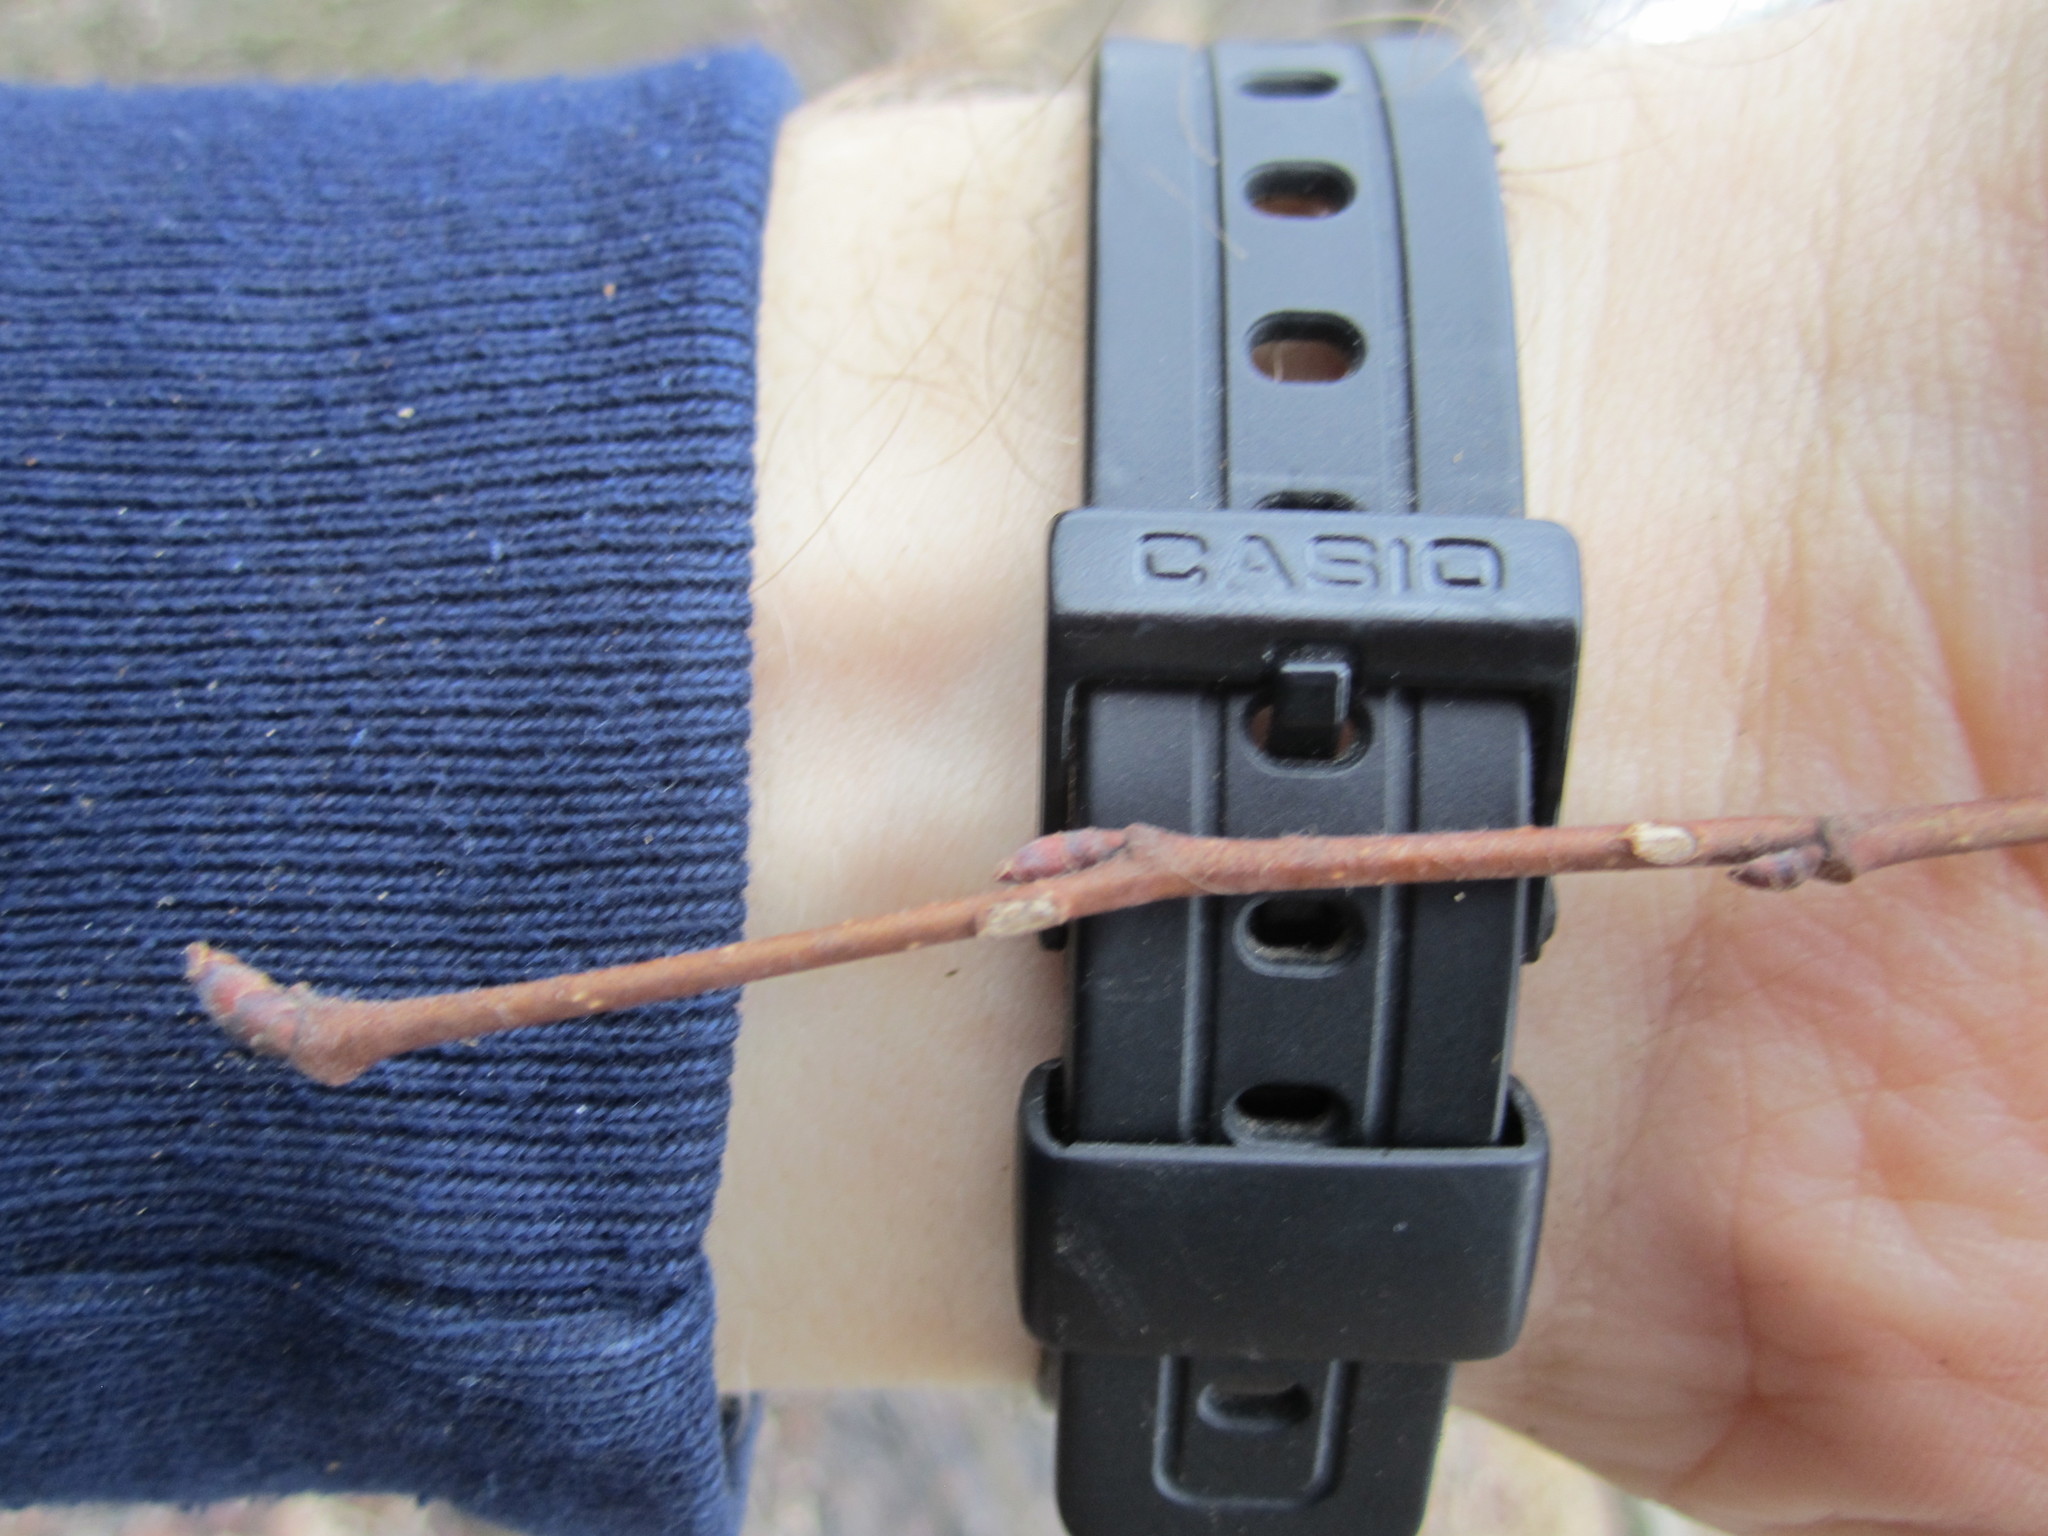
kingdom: Plantae
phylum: Tracheophyta
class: Magnoliopsida
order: Rosales
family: Ulmaceae
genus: Ulmus
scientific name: Ulmus americana
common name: American elm
